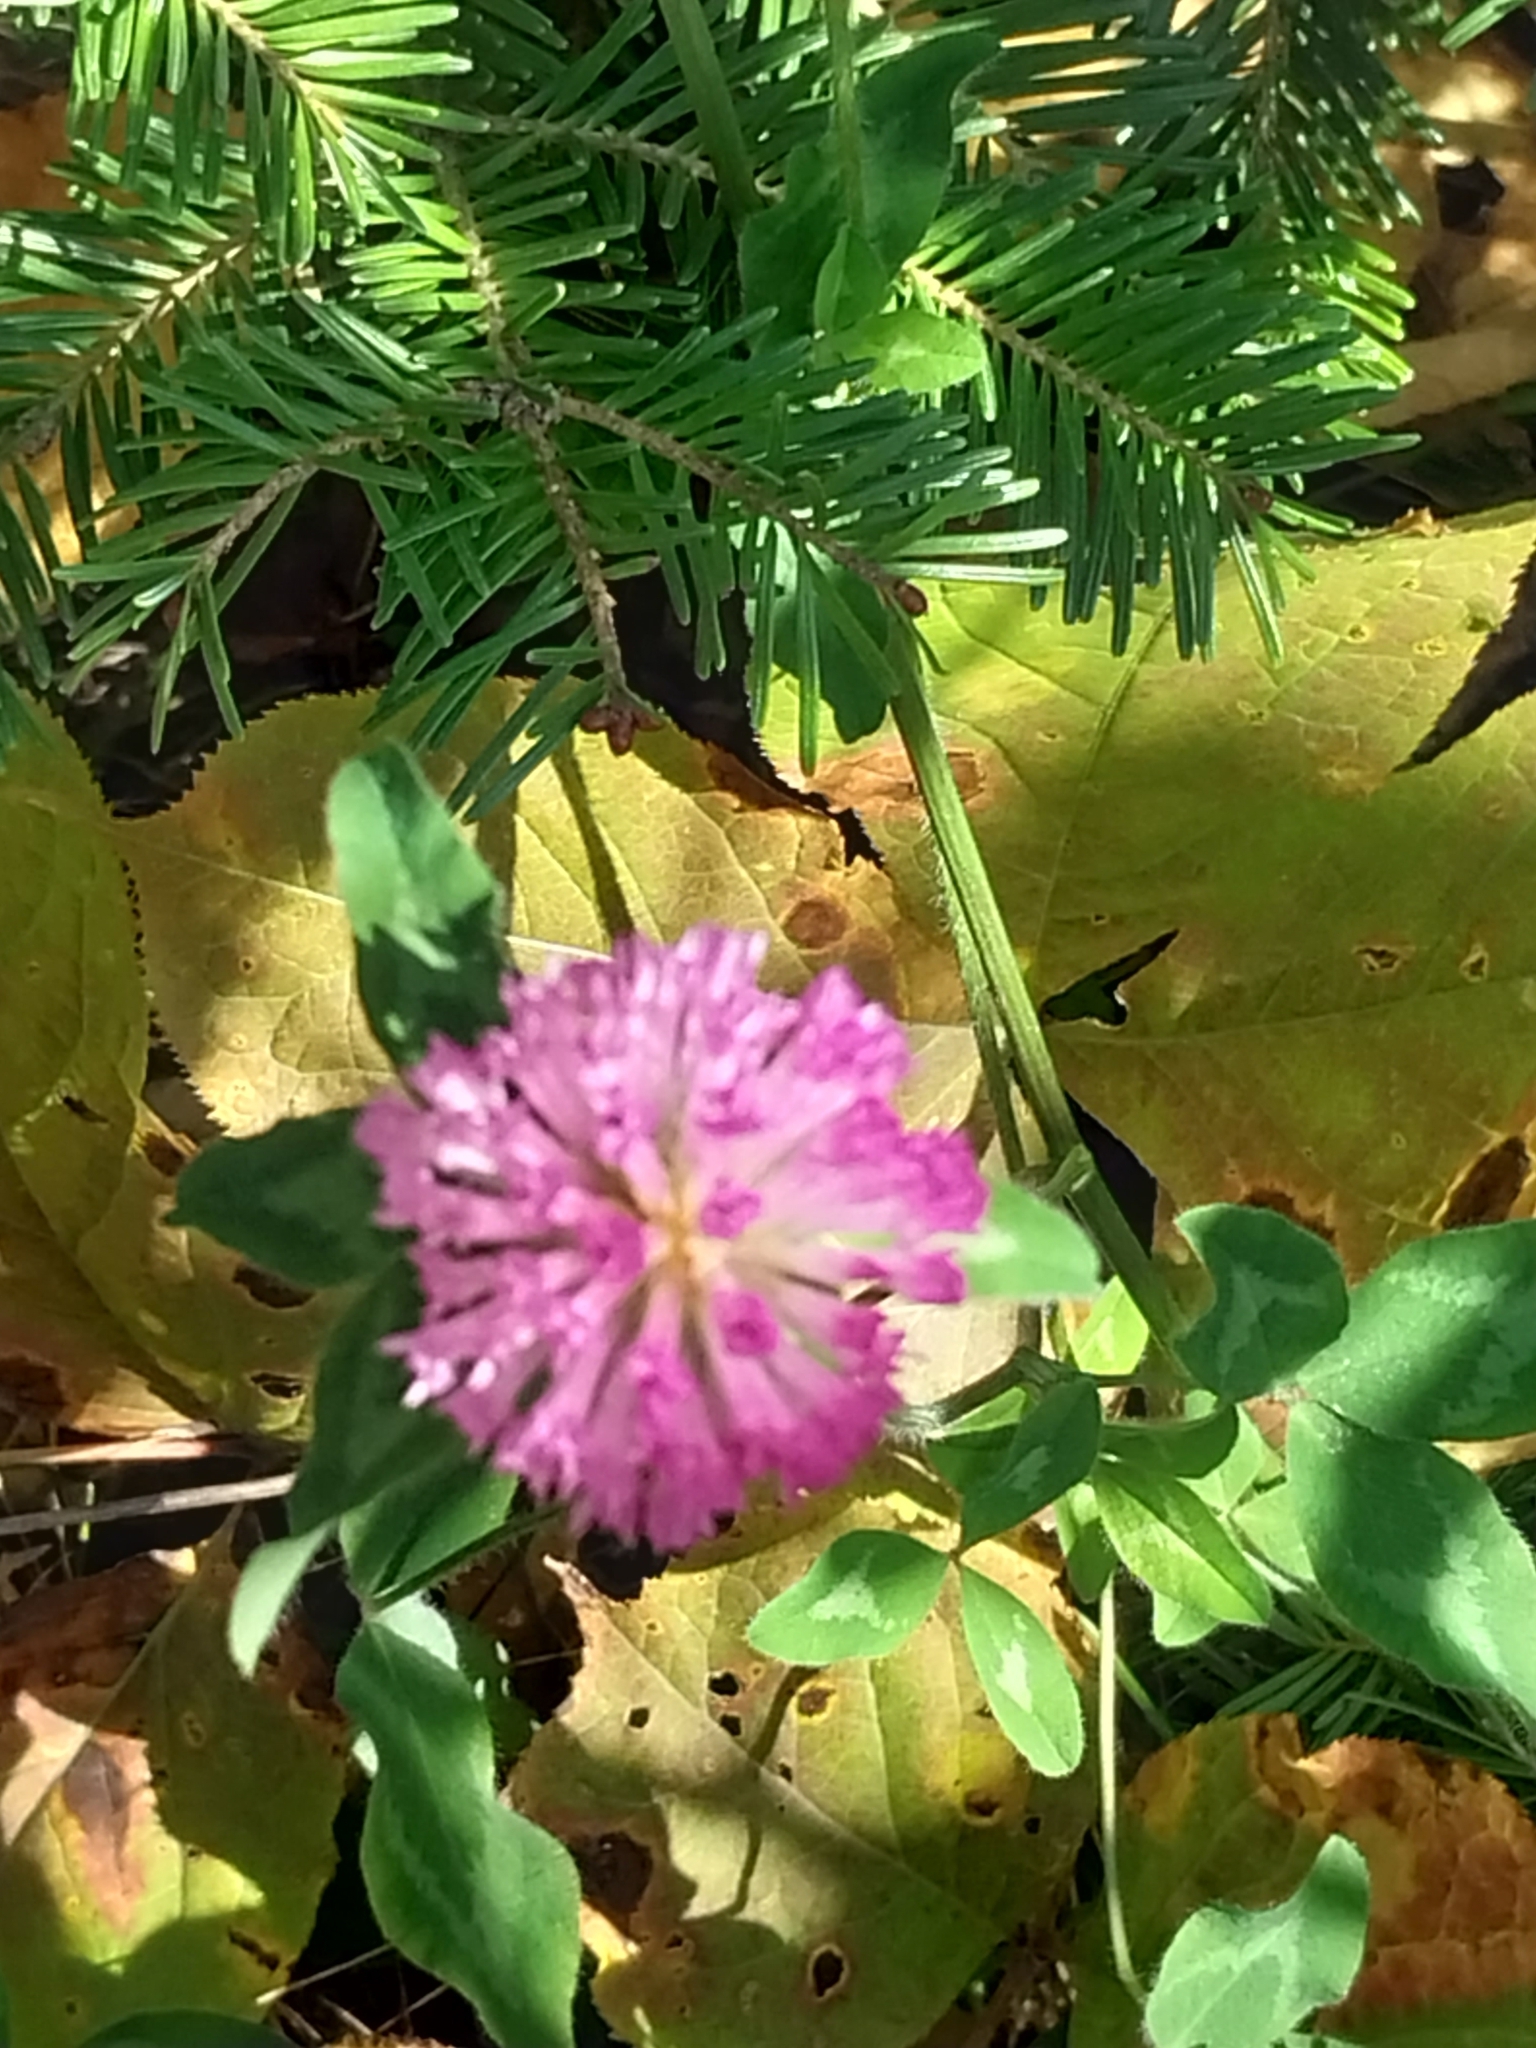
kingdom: Plantae
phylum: Tracheophyta
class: Magnoliopsida
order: Fabales
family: Fabaceae
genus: Trifolium
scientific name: Trifolium pratense
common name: Red clover
